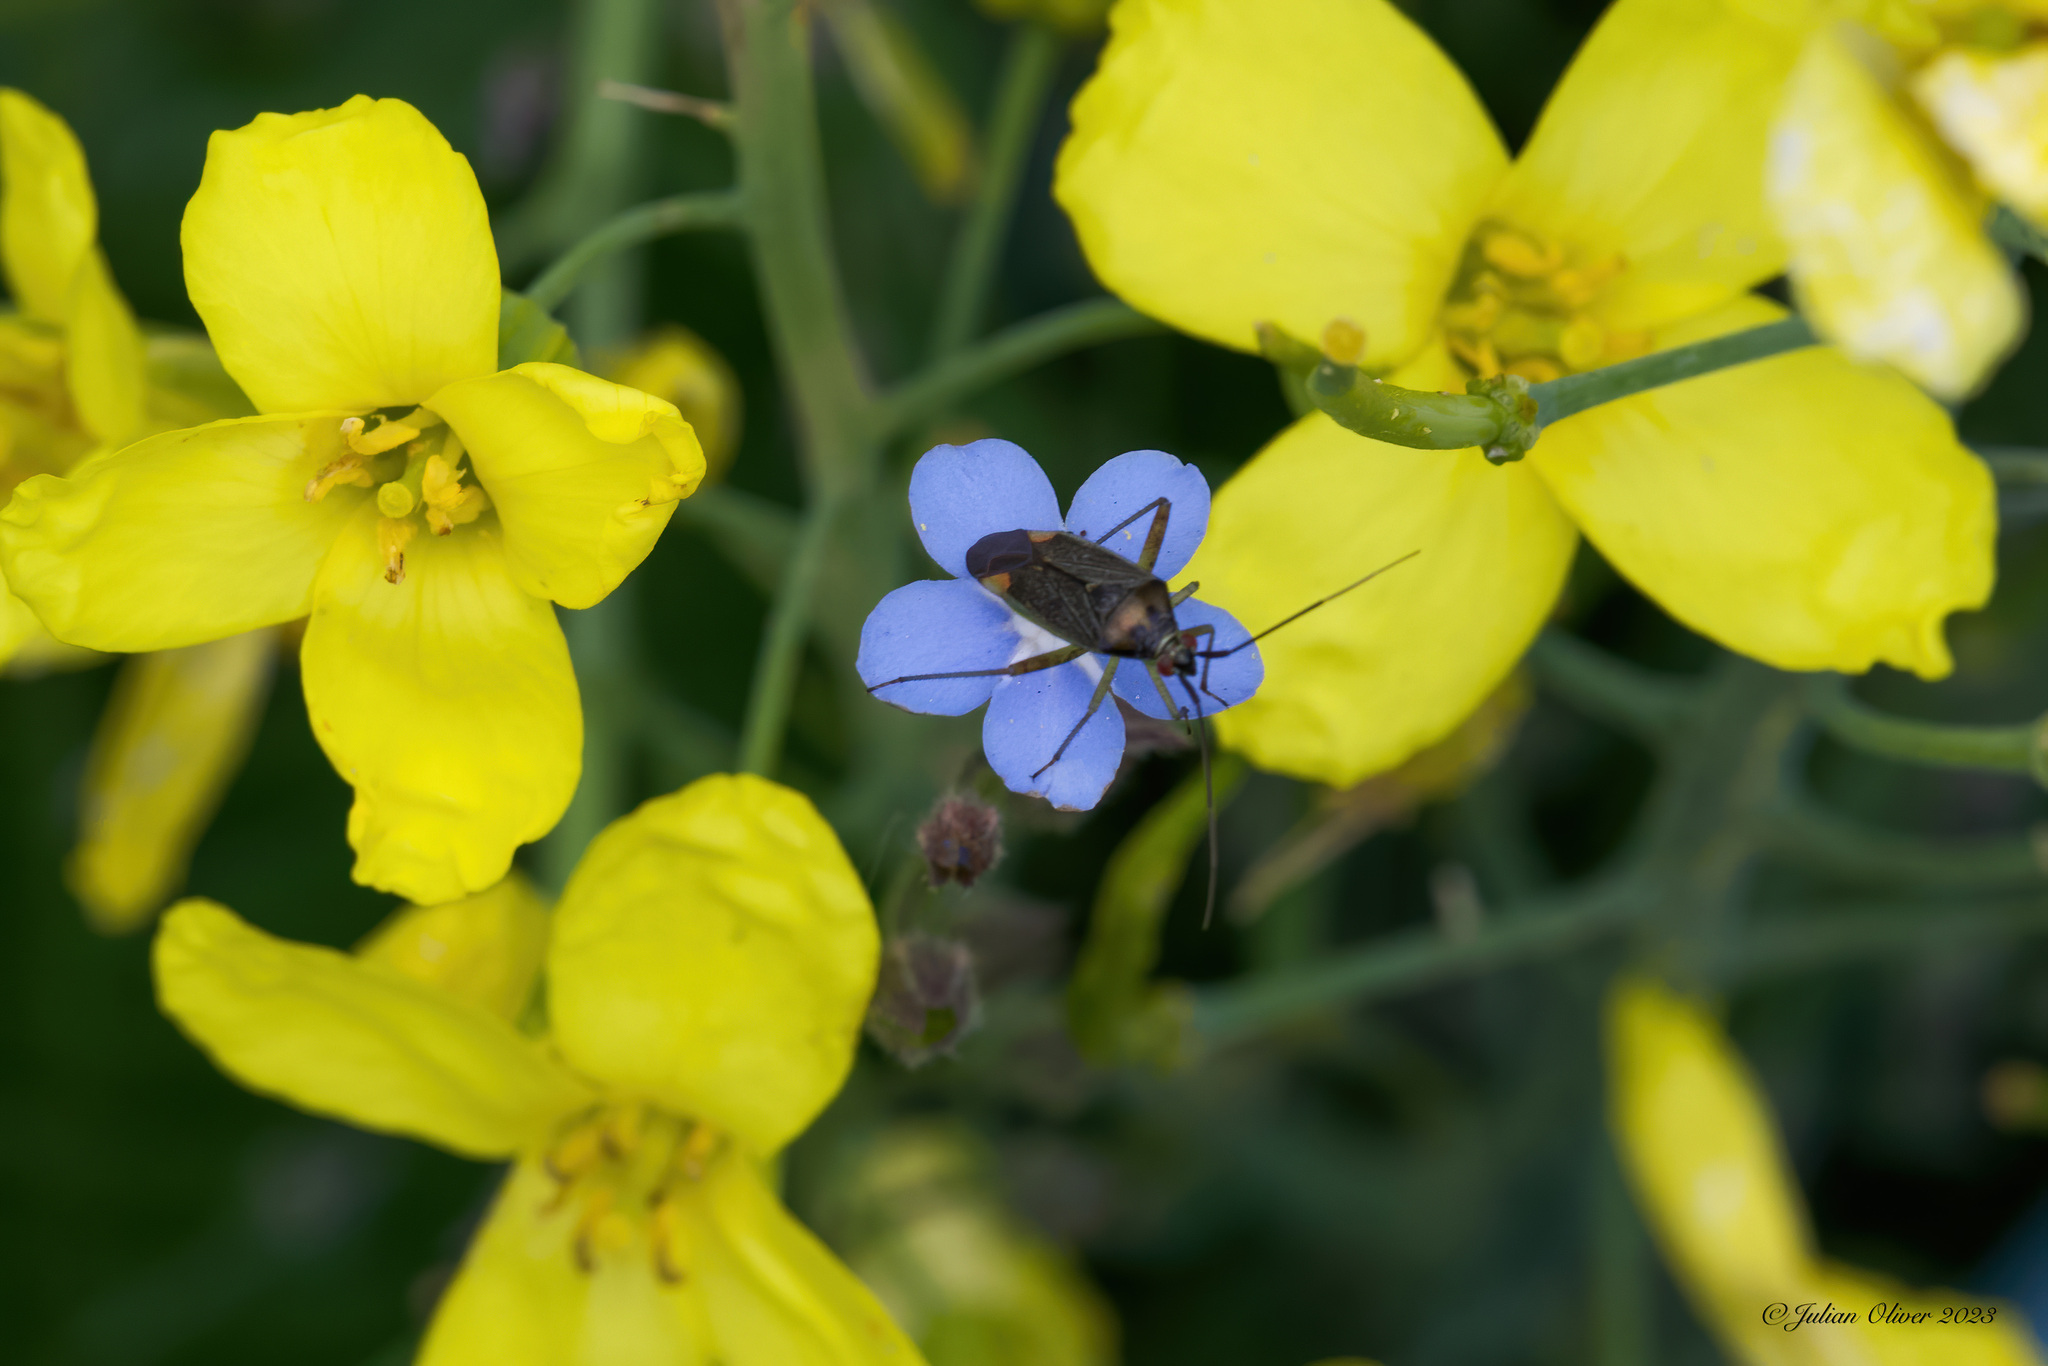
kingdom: Animalia
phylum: Arthropoda
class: Insecta
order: Hemiptera
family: Miridae
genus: Closterotomus
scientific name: Closterotomus trivialis
